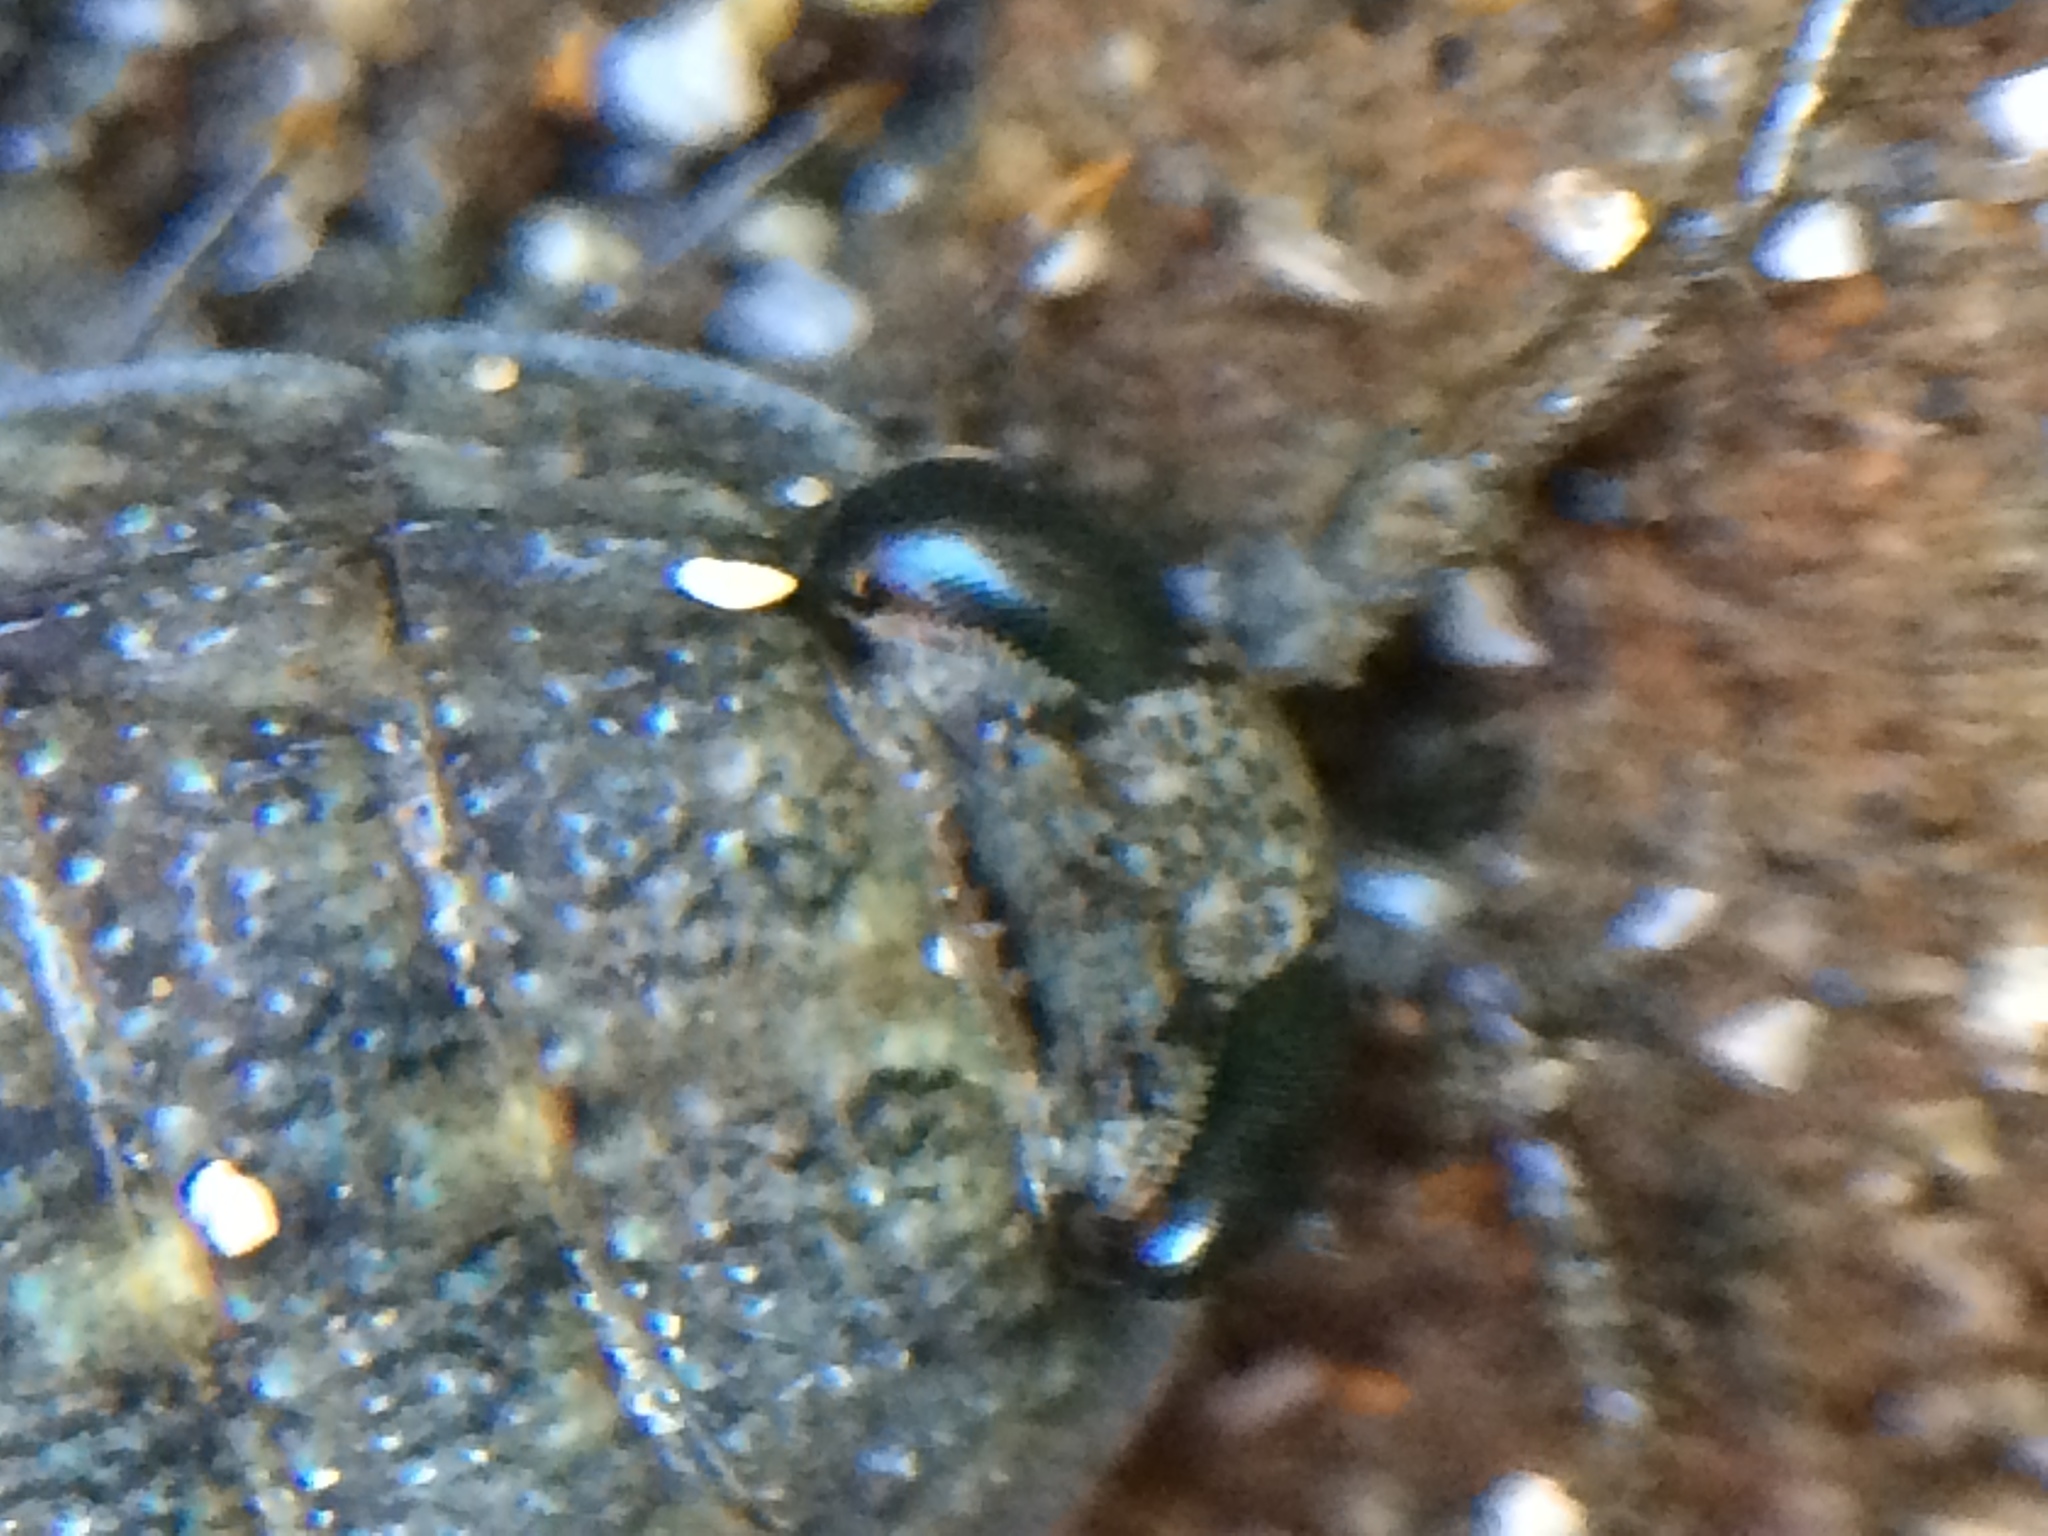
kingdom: Animalia
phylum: Arthropoda
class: Malacostraca
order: Isopoda
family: Ligiidae
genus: Ligia
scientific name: Ligia occidentalis
